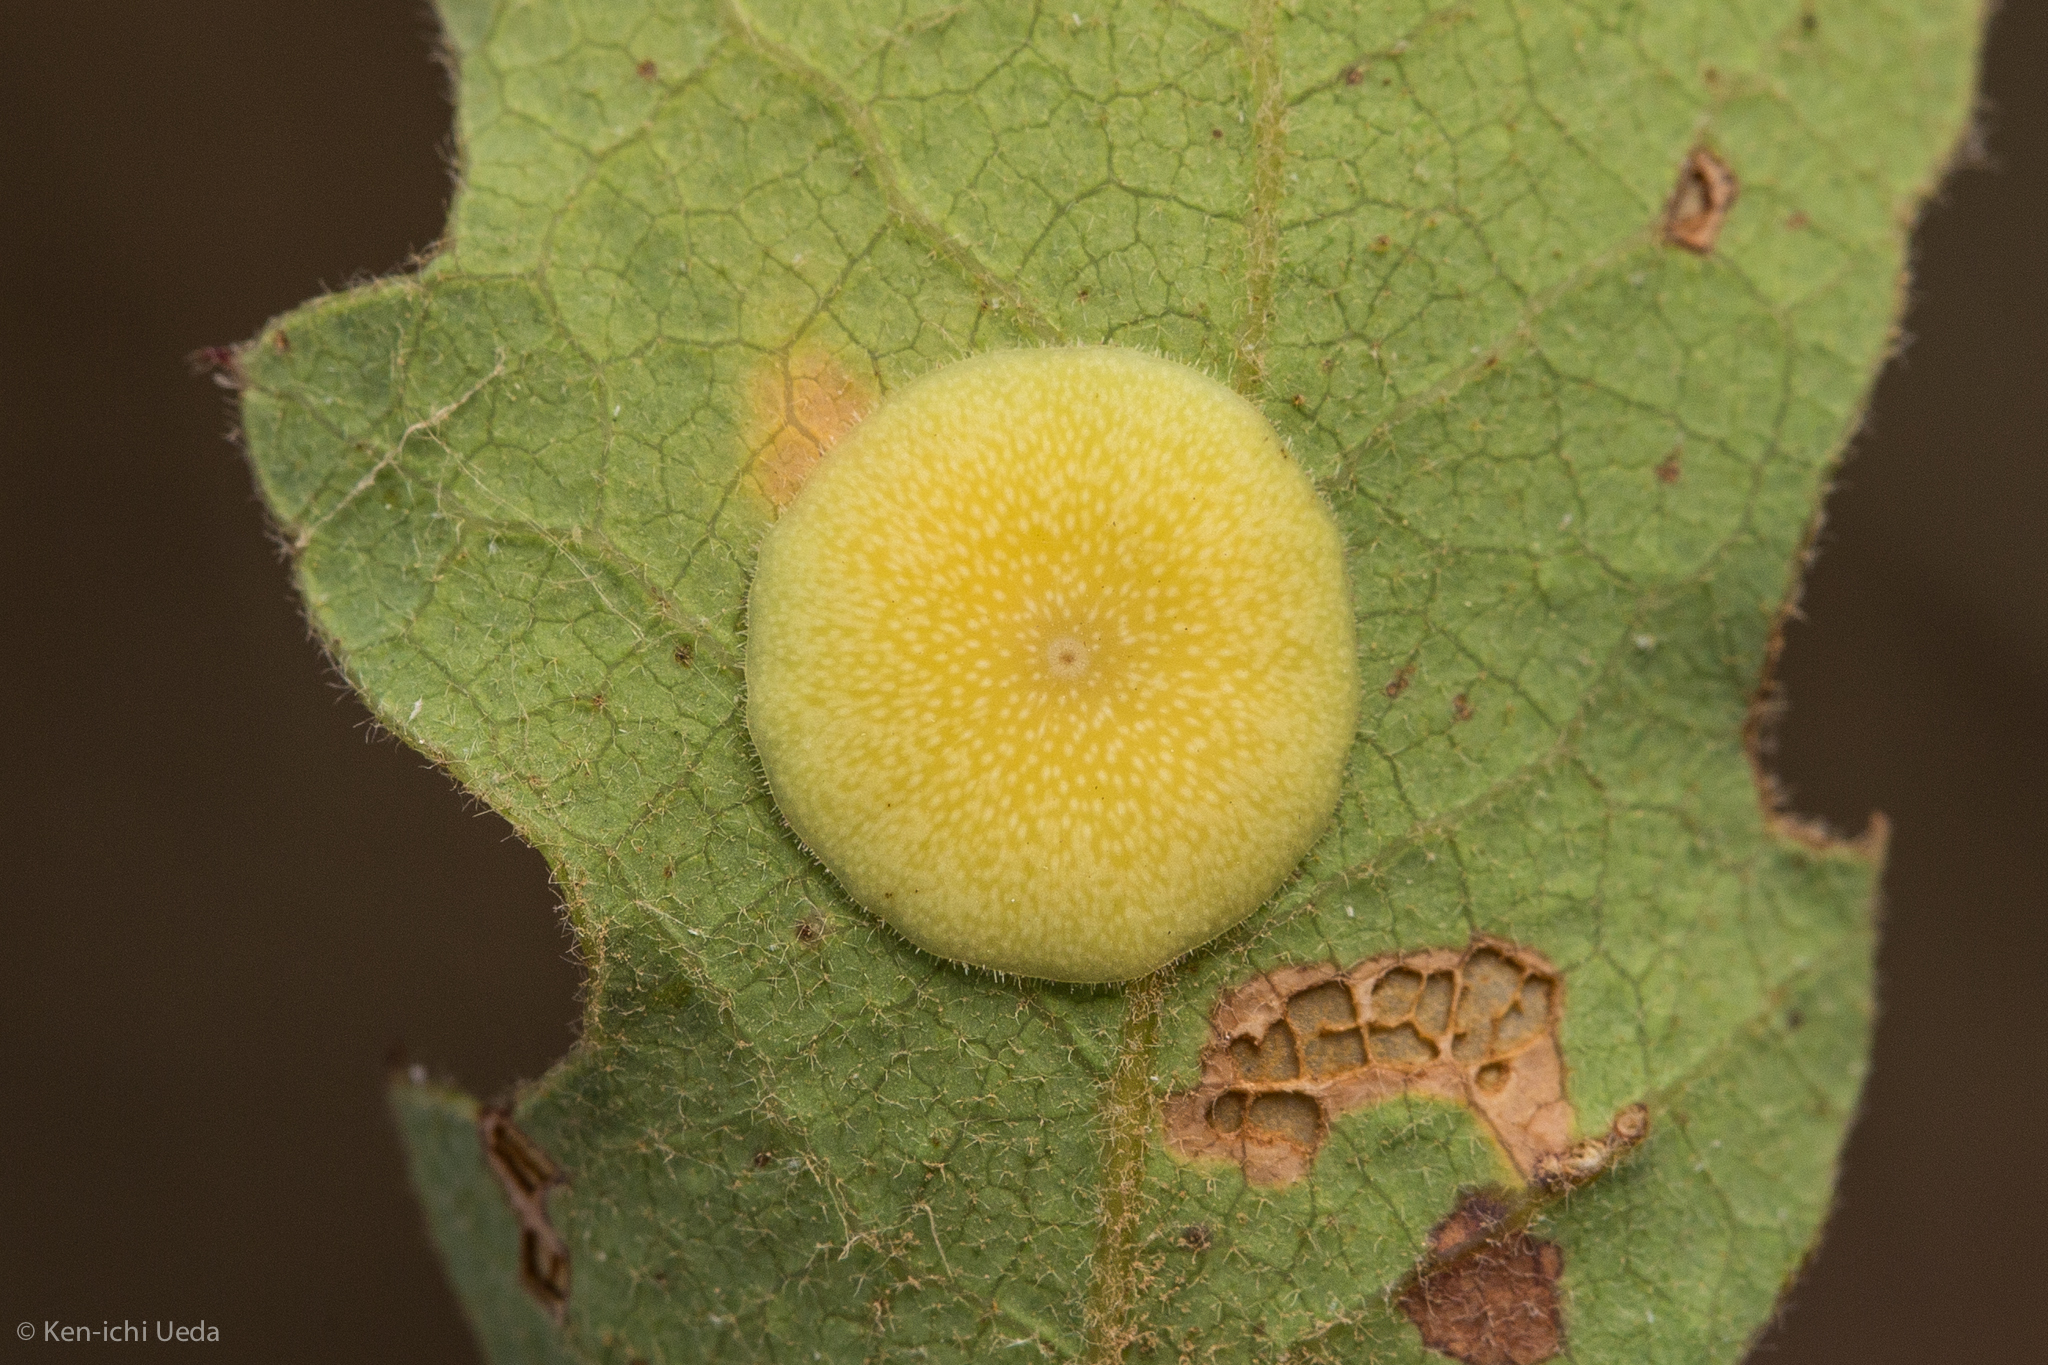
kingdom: Animalia
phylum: Arthropoda
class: Insecta
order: Hymenoptera
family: Cynipidae
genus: Andricus
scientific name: Andricus
